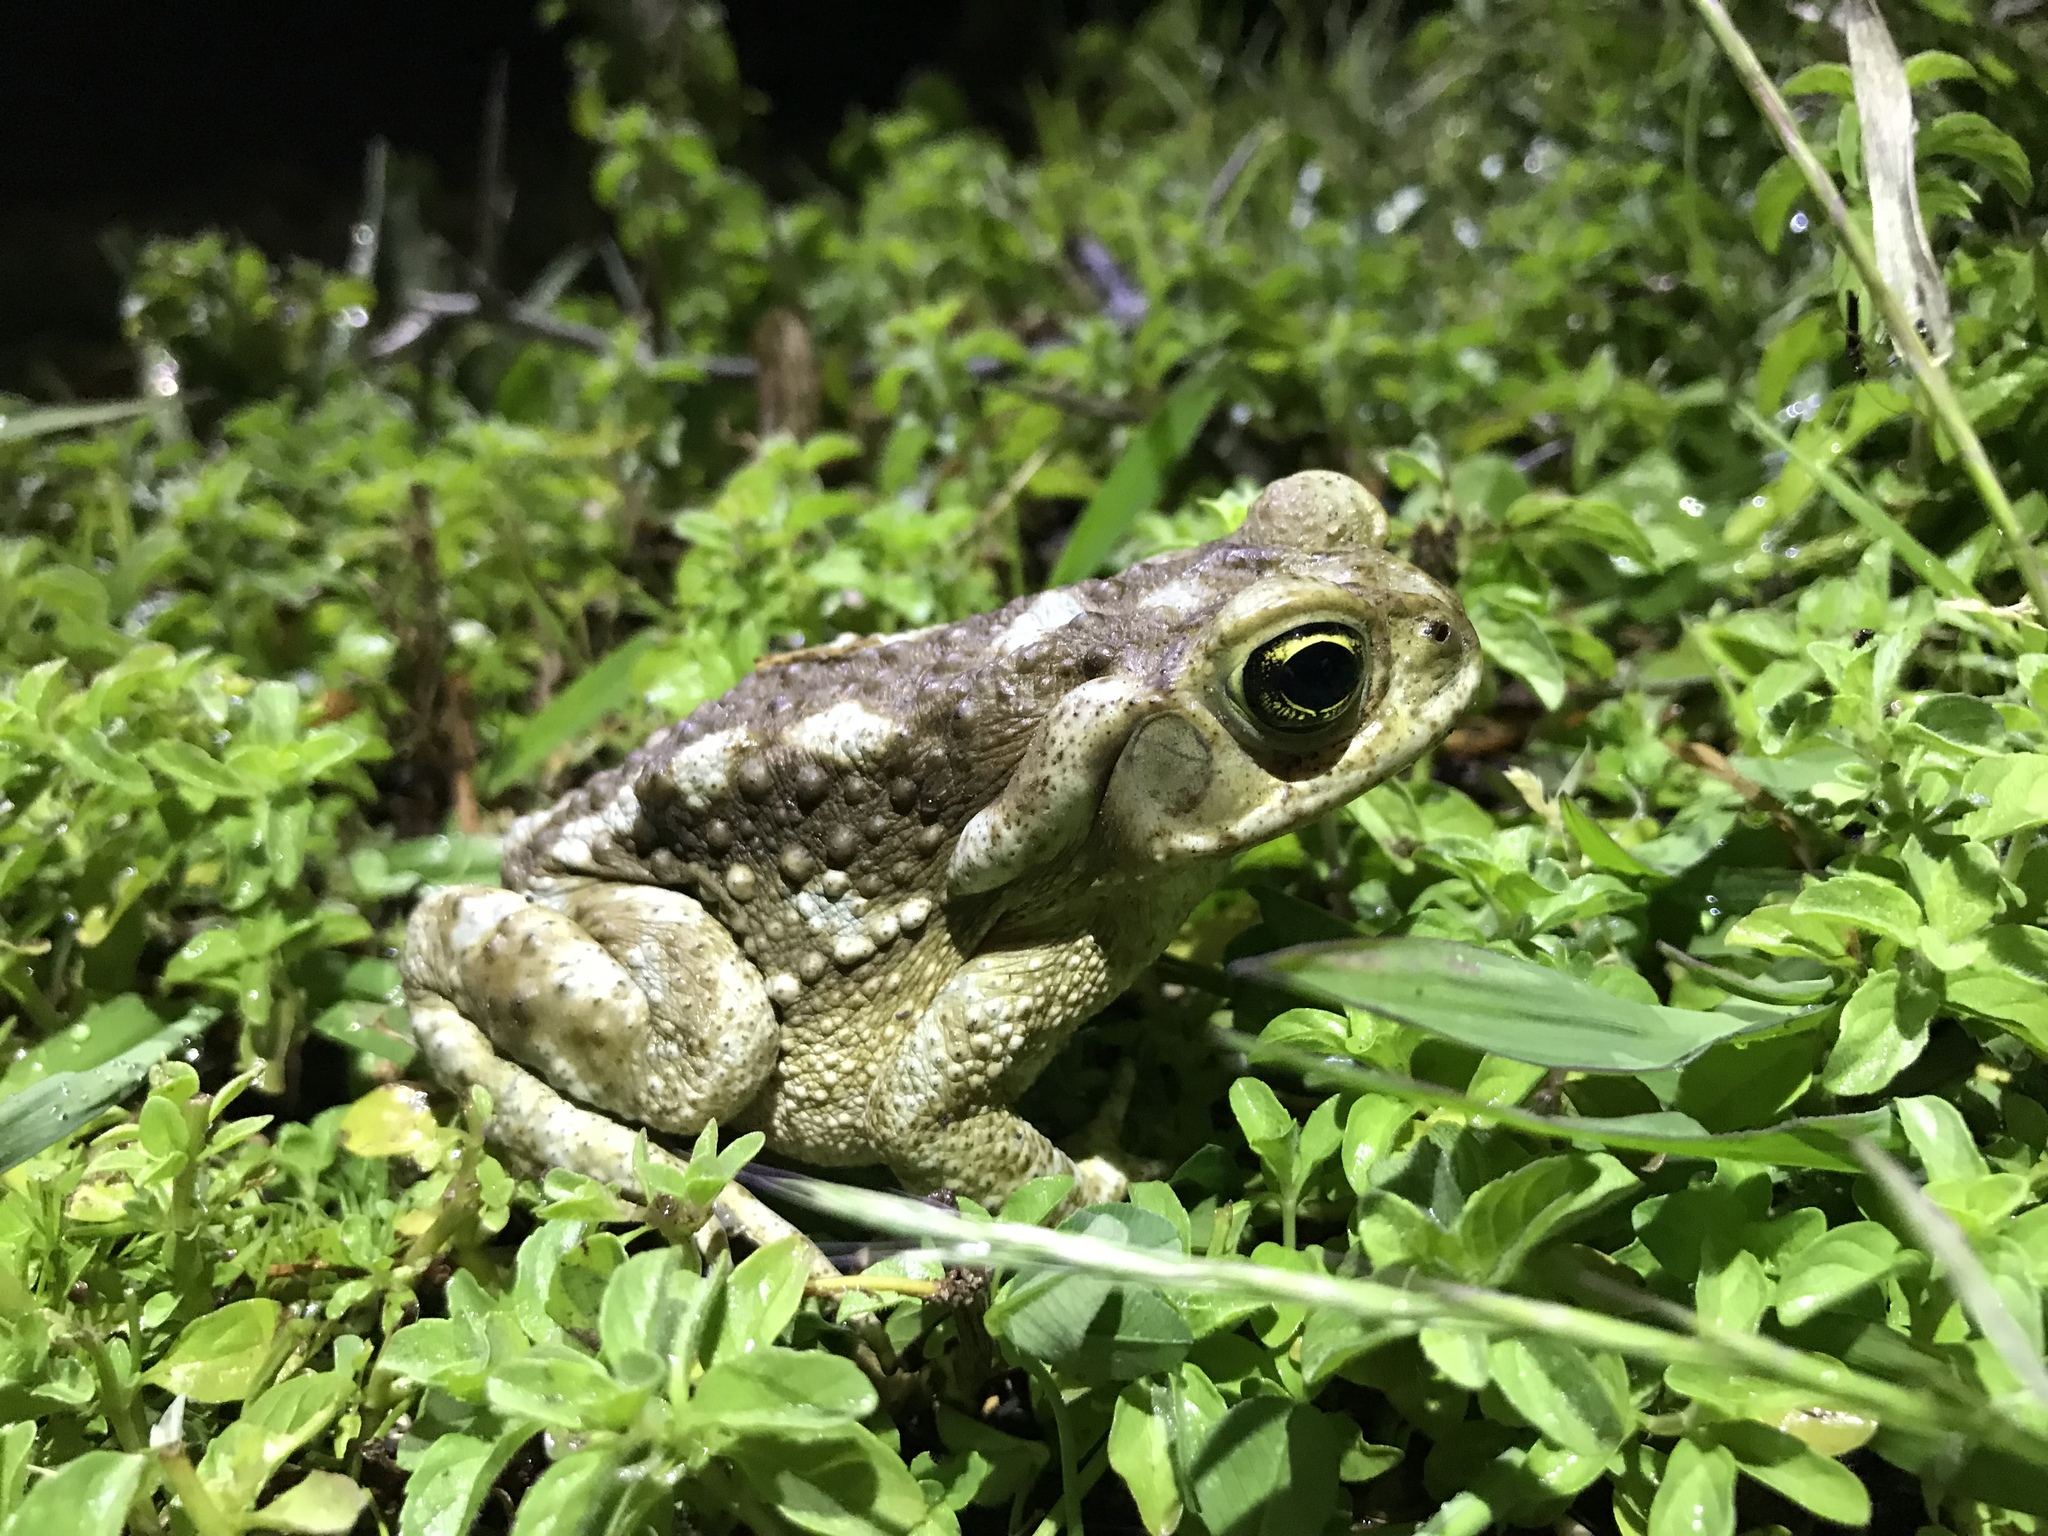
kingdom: Animalia
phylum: Chordata
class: Amphibia
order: Anura
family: Bufonidae
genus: Rhinella
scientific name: Rhinella arenarum
